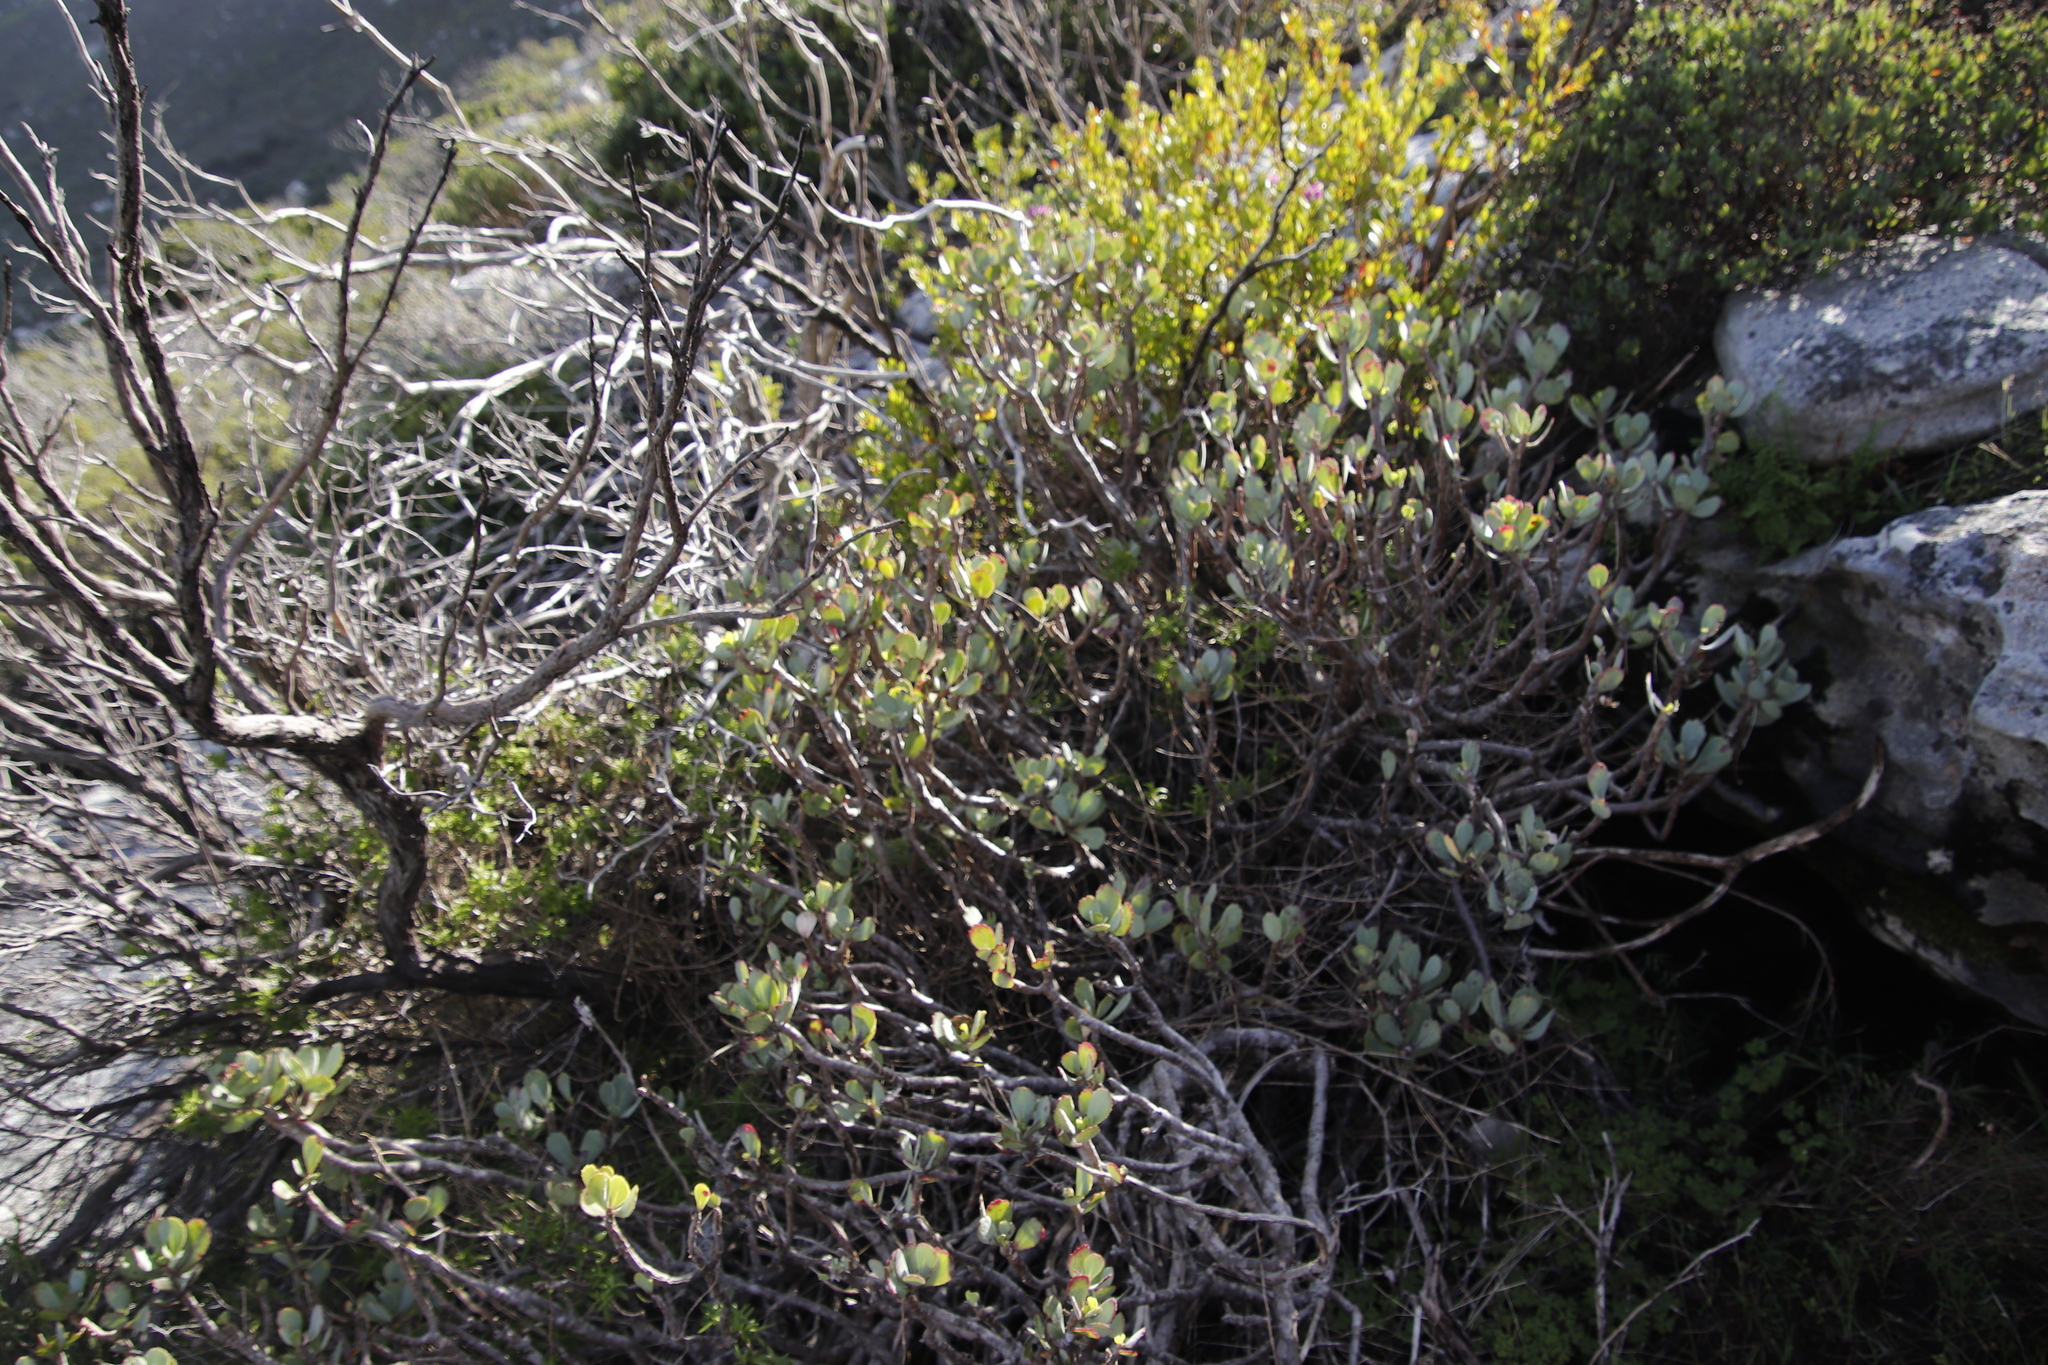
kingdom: Plantae
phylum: Tracheophyta
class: Magnoliopsida
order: Asterales
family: Asteraceae
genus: Othonna
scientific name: Othonna dentata
